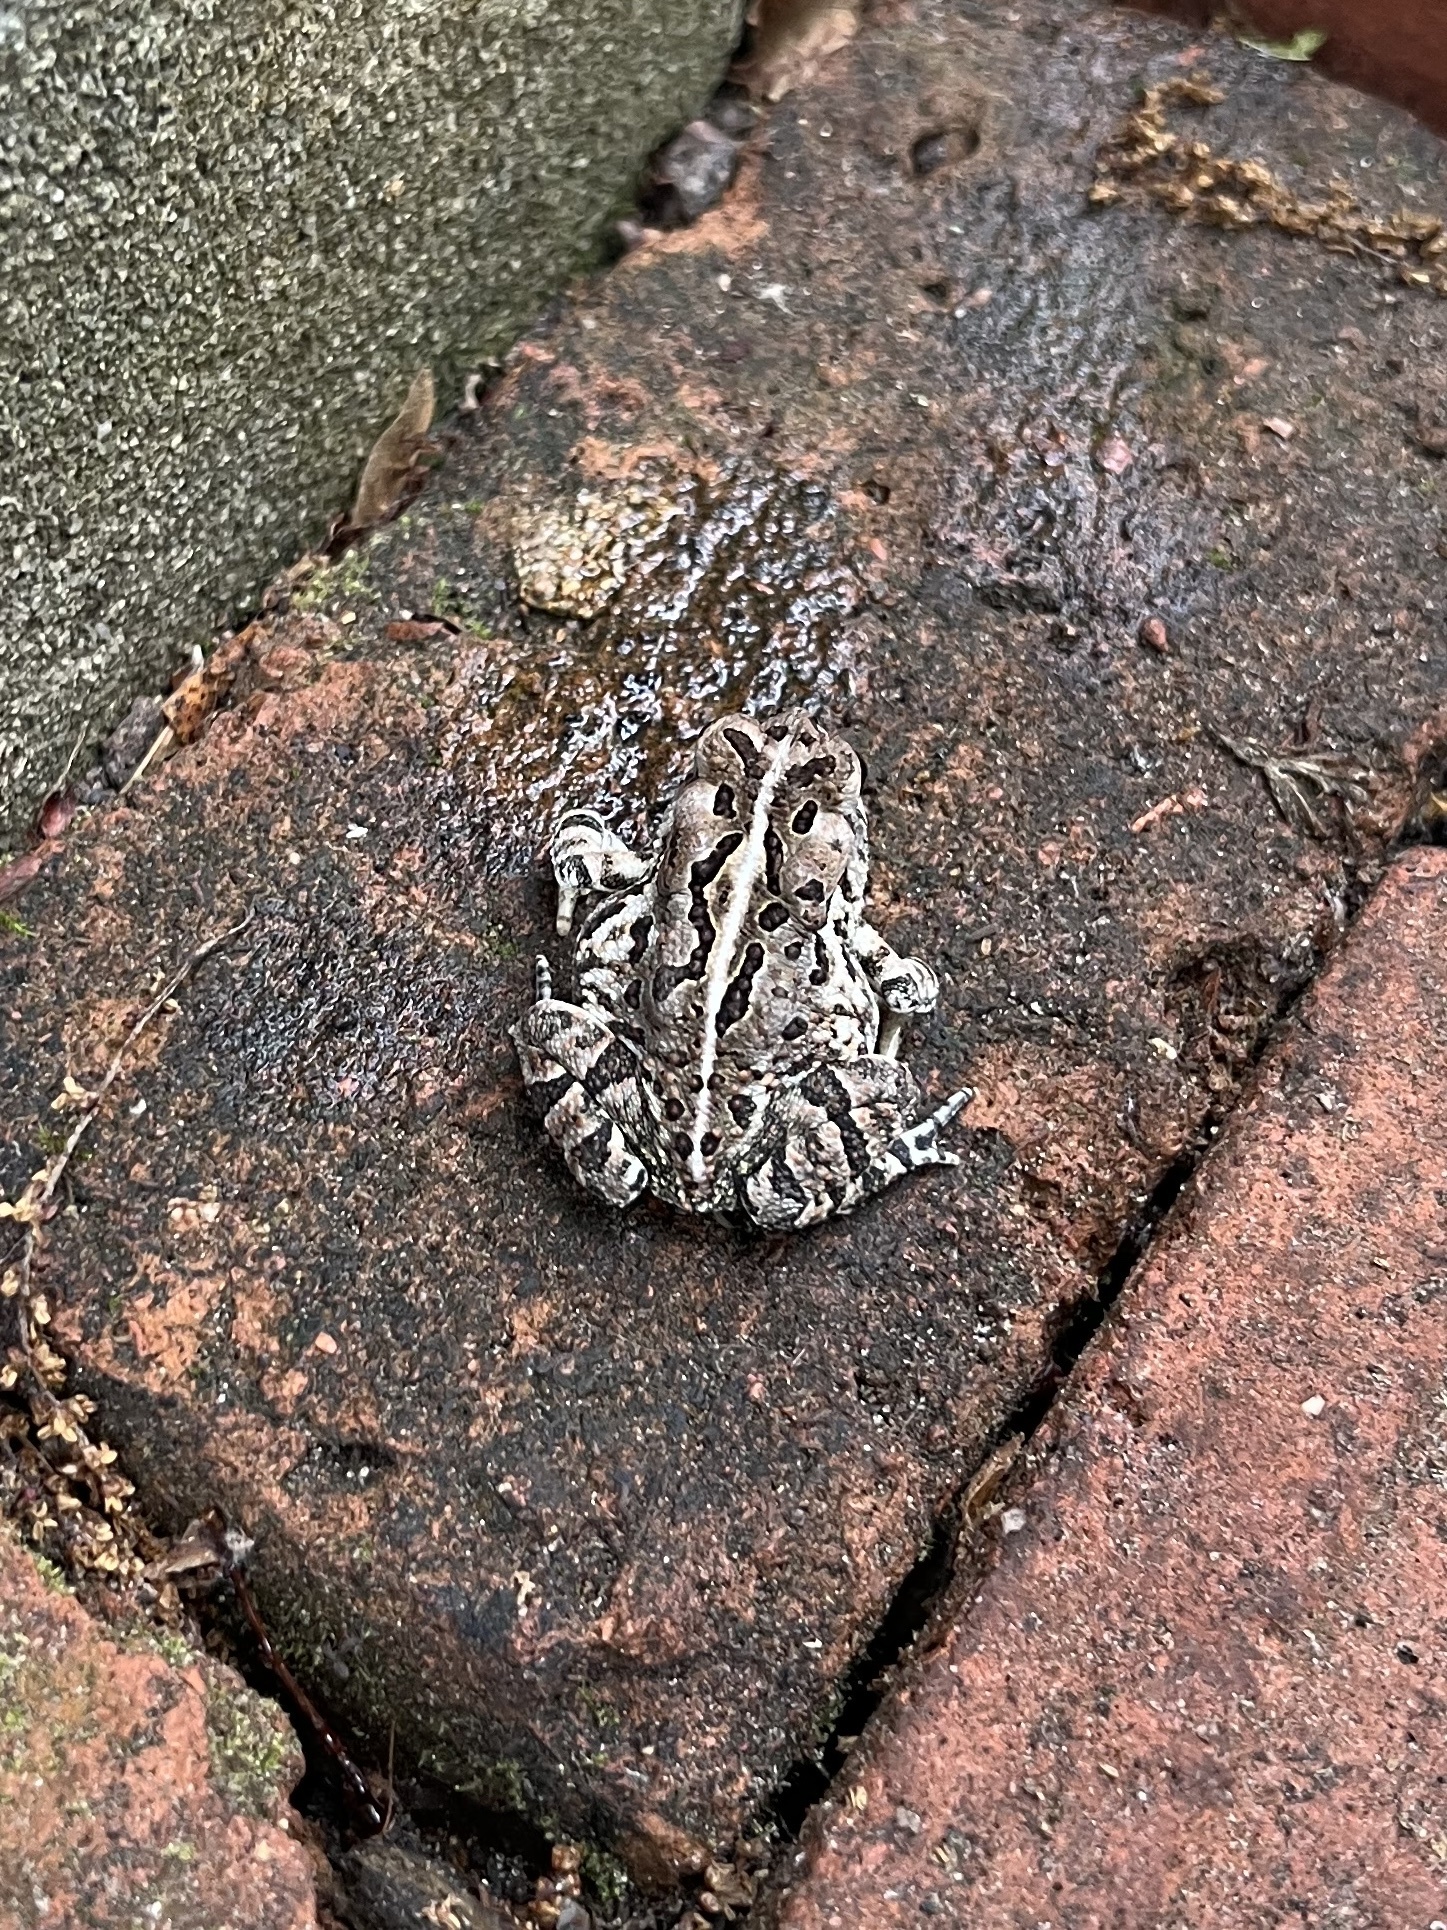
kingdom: Animalia
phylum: Chordata
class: Amphibia
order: Anura
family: Bufonidae
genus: Anaxyrus
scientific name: Anaxyrus fowleri
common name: Fowler's toad
